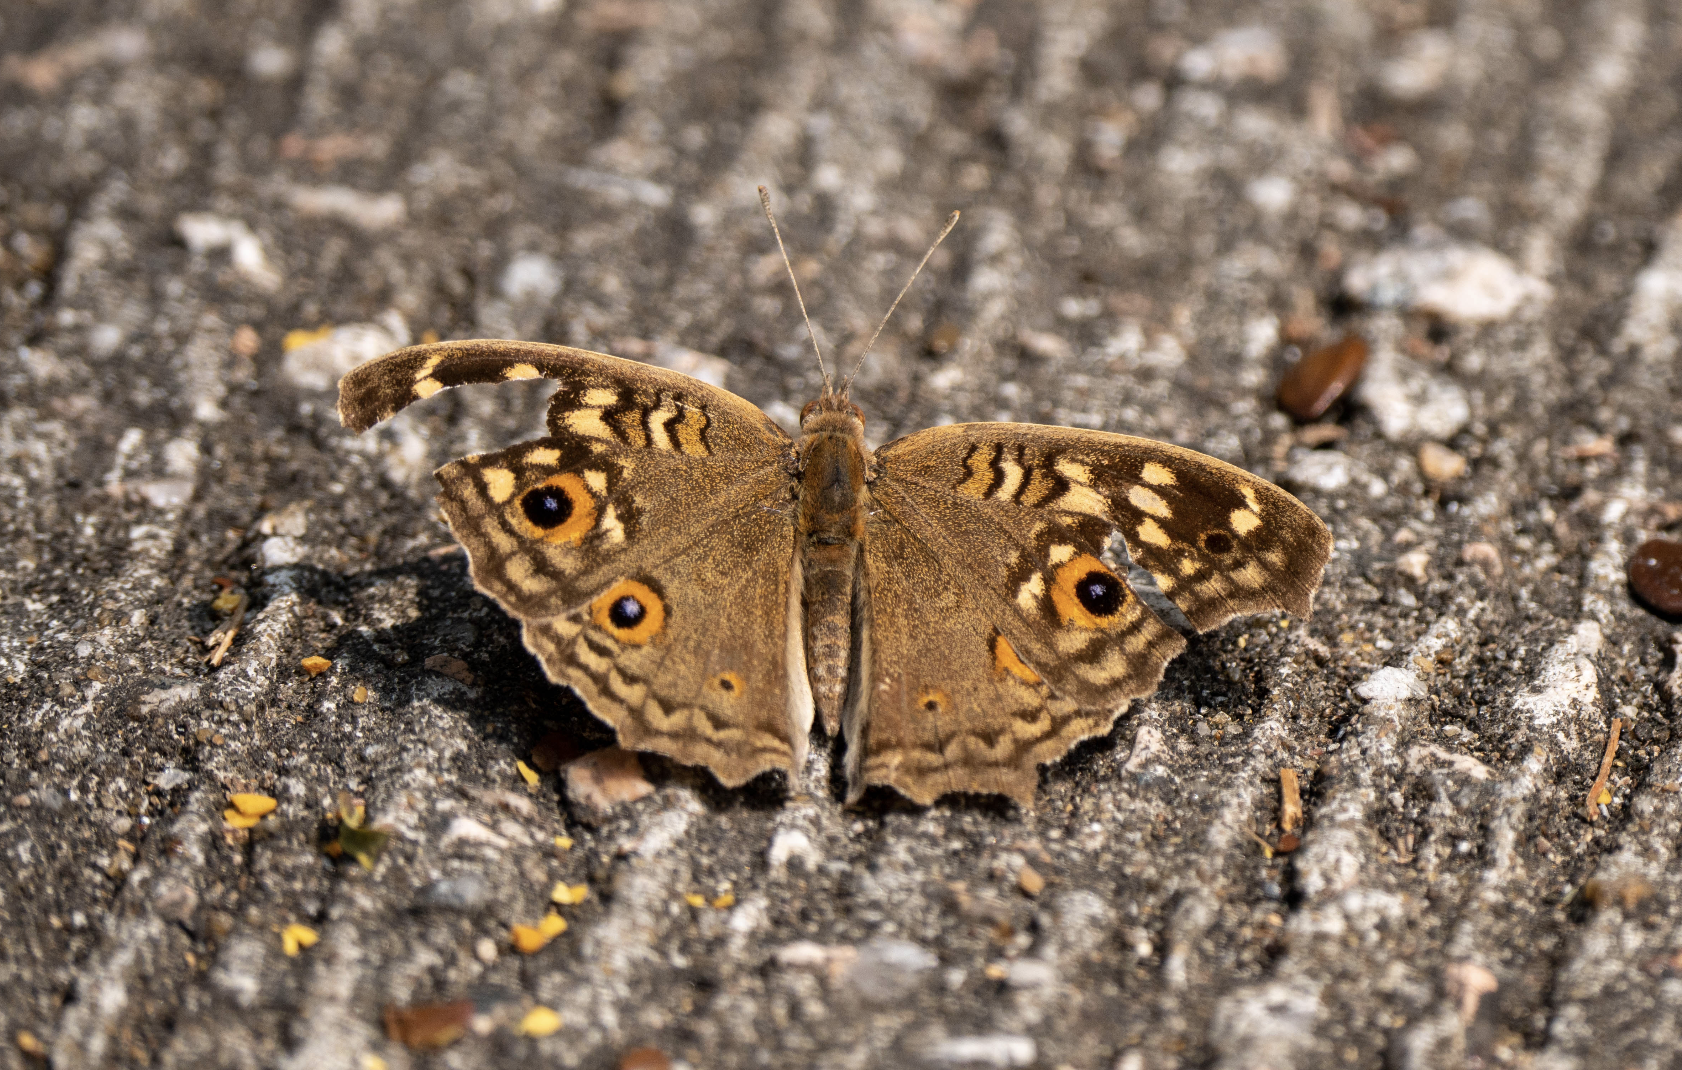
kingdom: Animalia
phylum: Arthropoda
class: Insecta
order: Lepidoptera
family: Nymphalidae
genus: Junonia
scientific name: Junonia lemonias
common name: Lemon pansy
